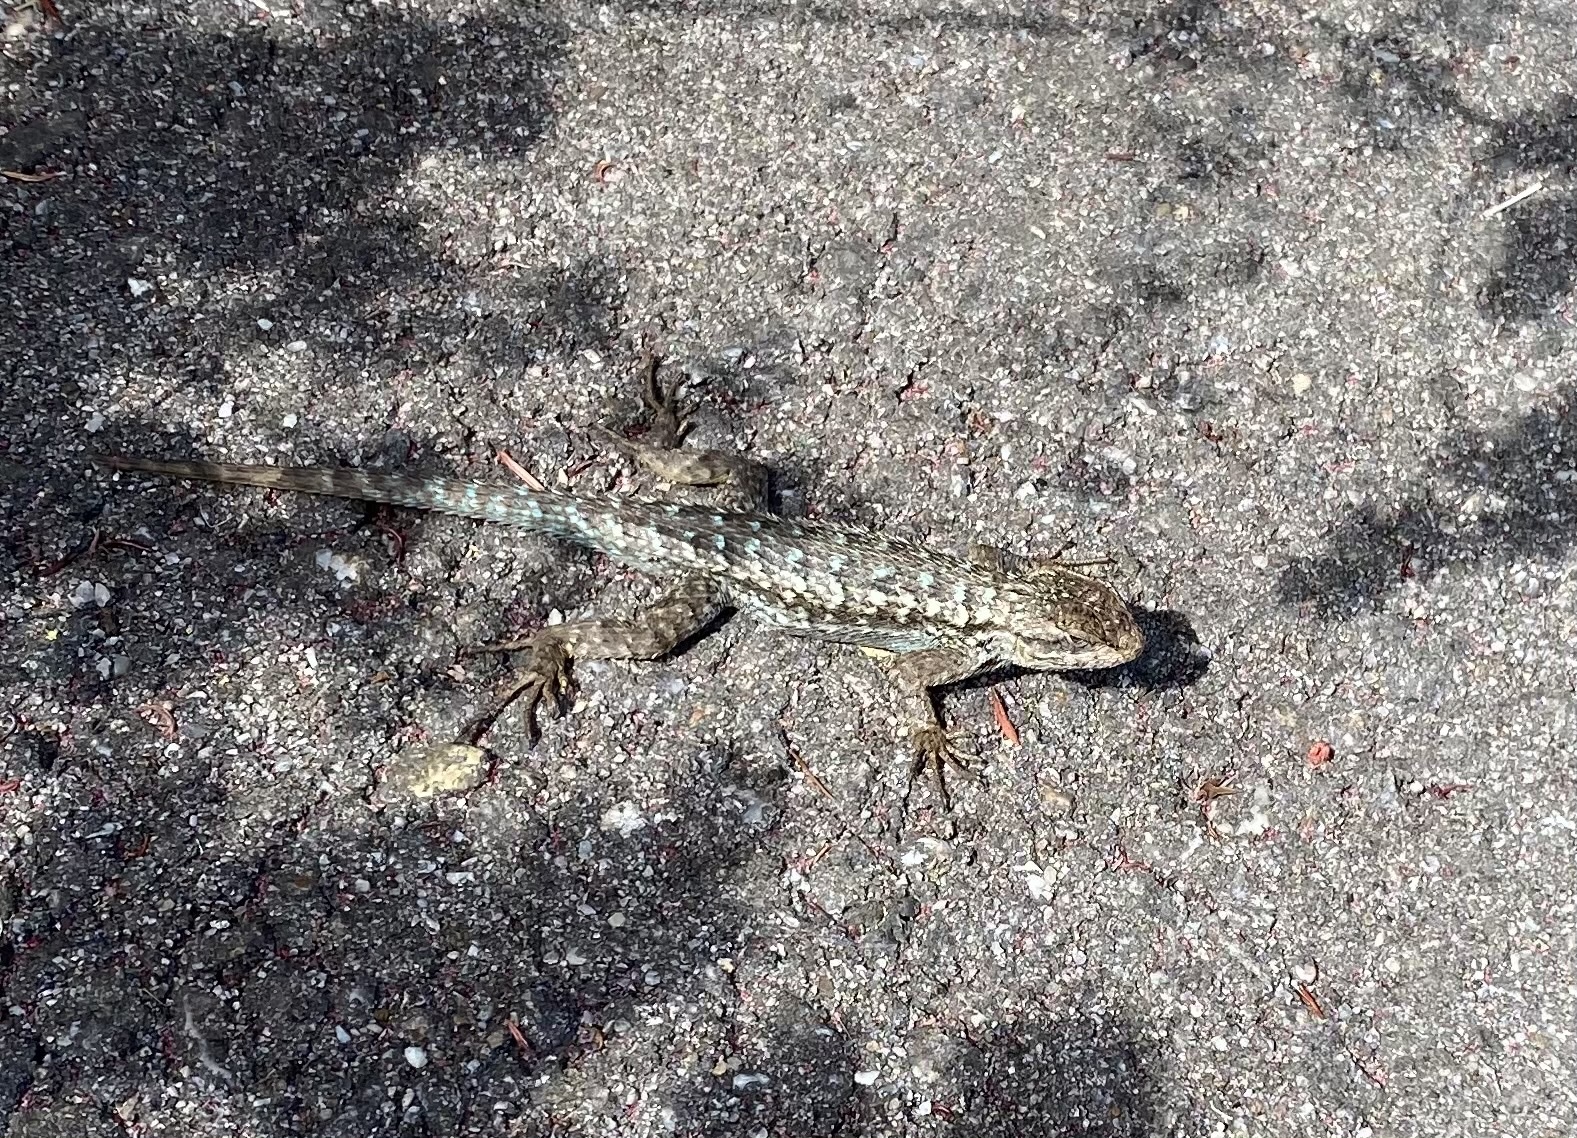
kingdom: Animalia
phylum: Chordata
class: Squamata
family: Phrynosomatidae
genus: Sceloporus
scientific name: Sceloporus occidentalis
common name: Western fence lizard
